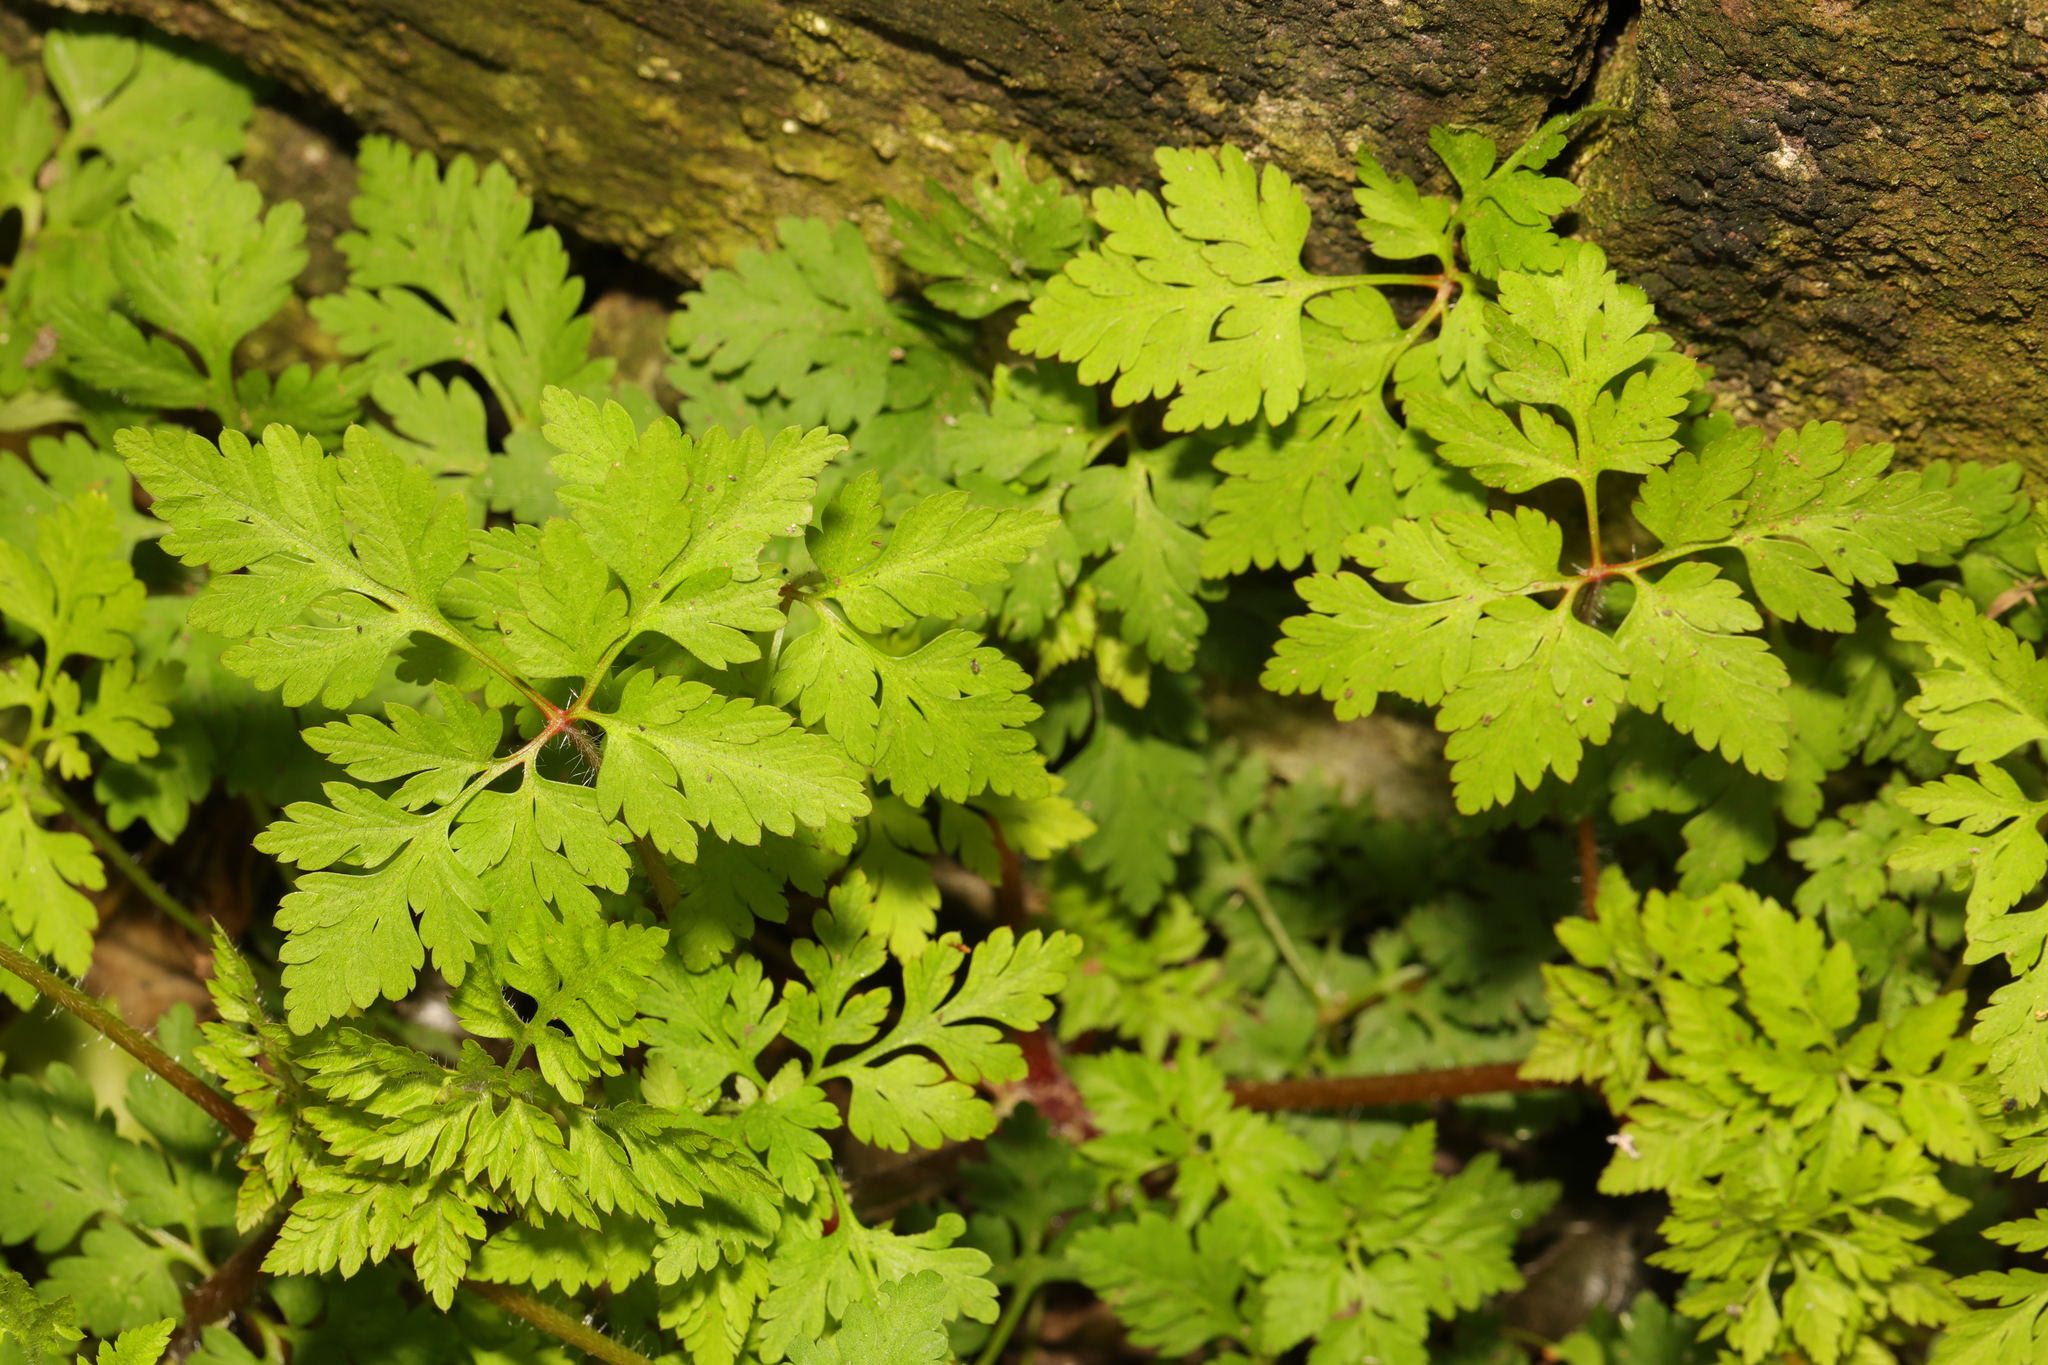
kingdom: Plantae
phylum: Tracheophyta
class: Magnoliopsida
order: Geraniales
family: Geraniaceae
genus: Geranium
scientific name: Geranium robertianum
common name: Herb-robert
